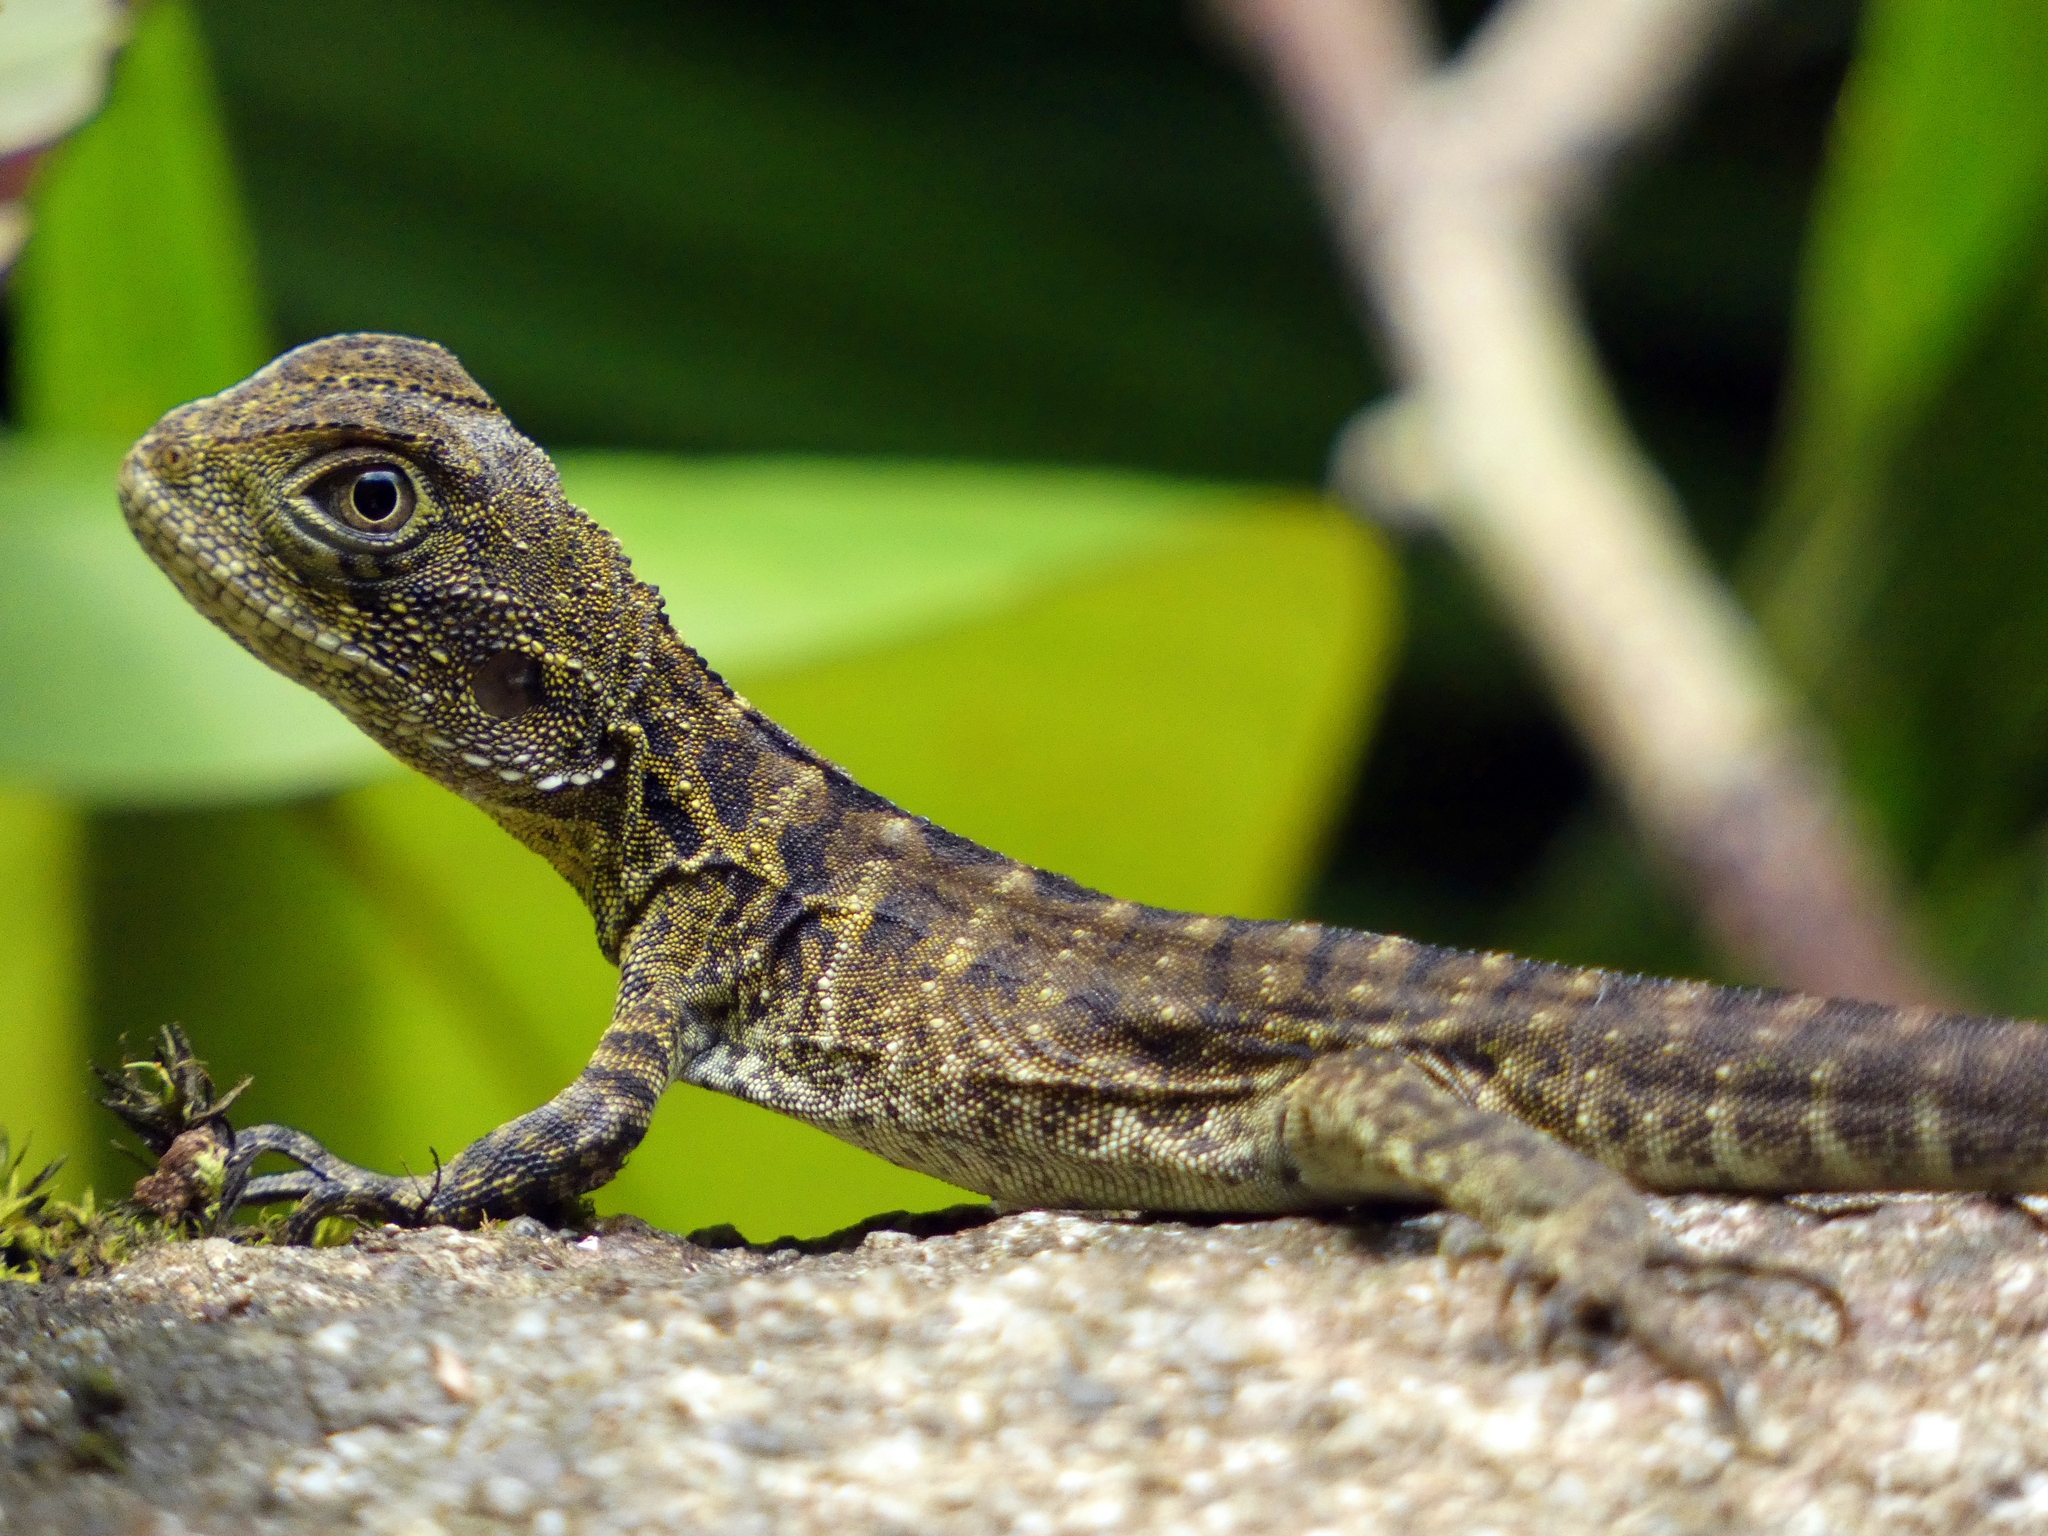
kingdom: Animalia
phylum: Chordata
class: Squamata
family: Agamidae
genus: Intellagama
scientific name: Intellagama lesueurii
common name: Eastern water dragon
